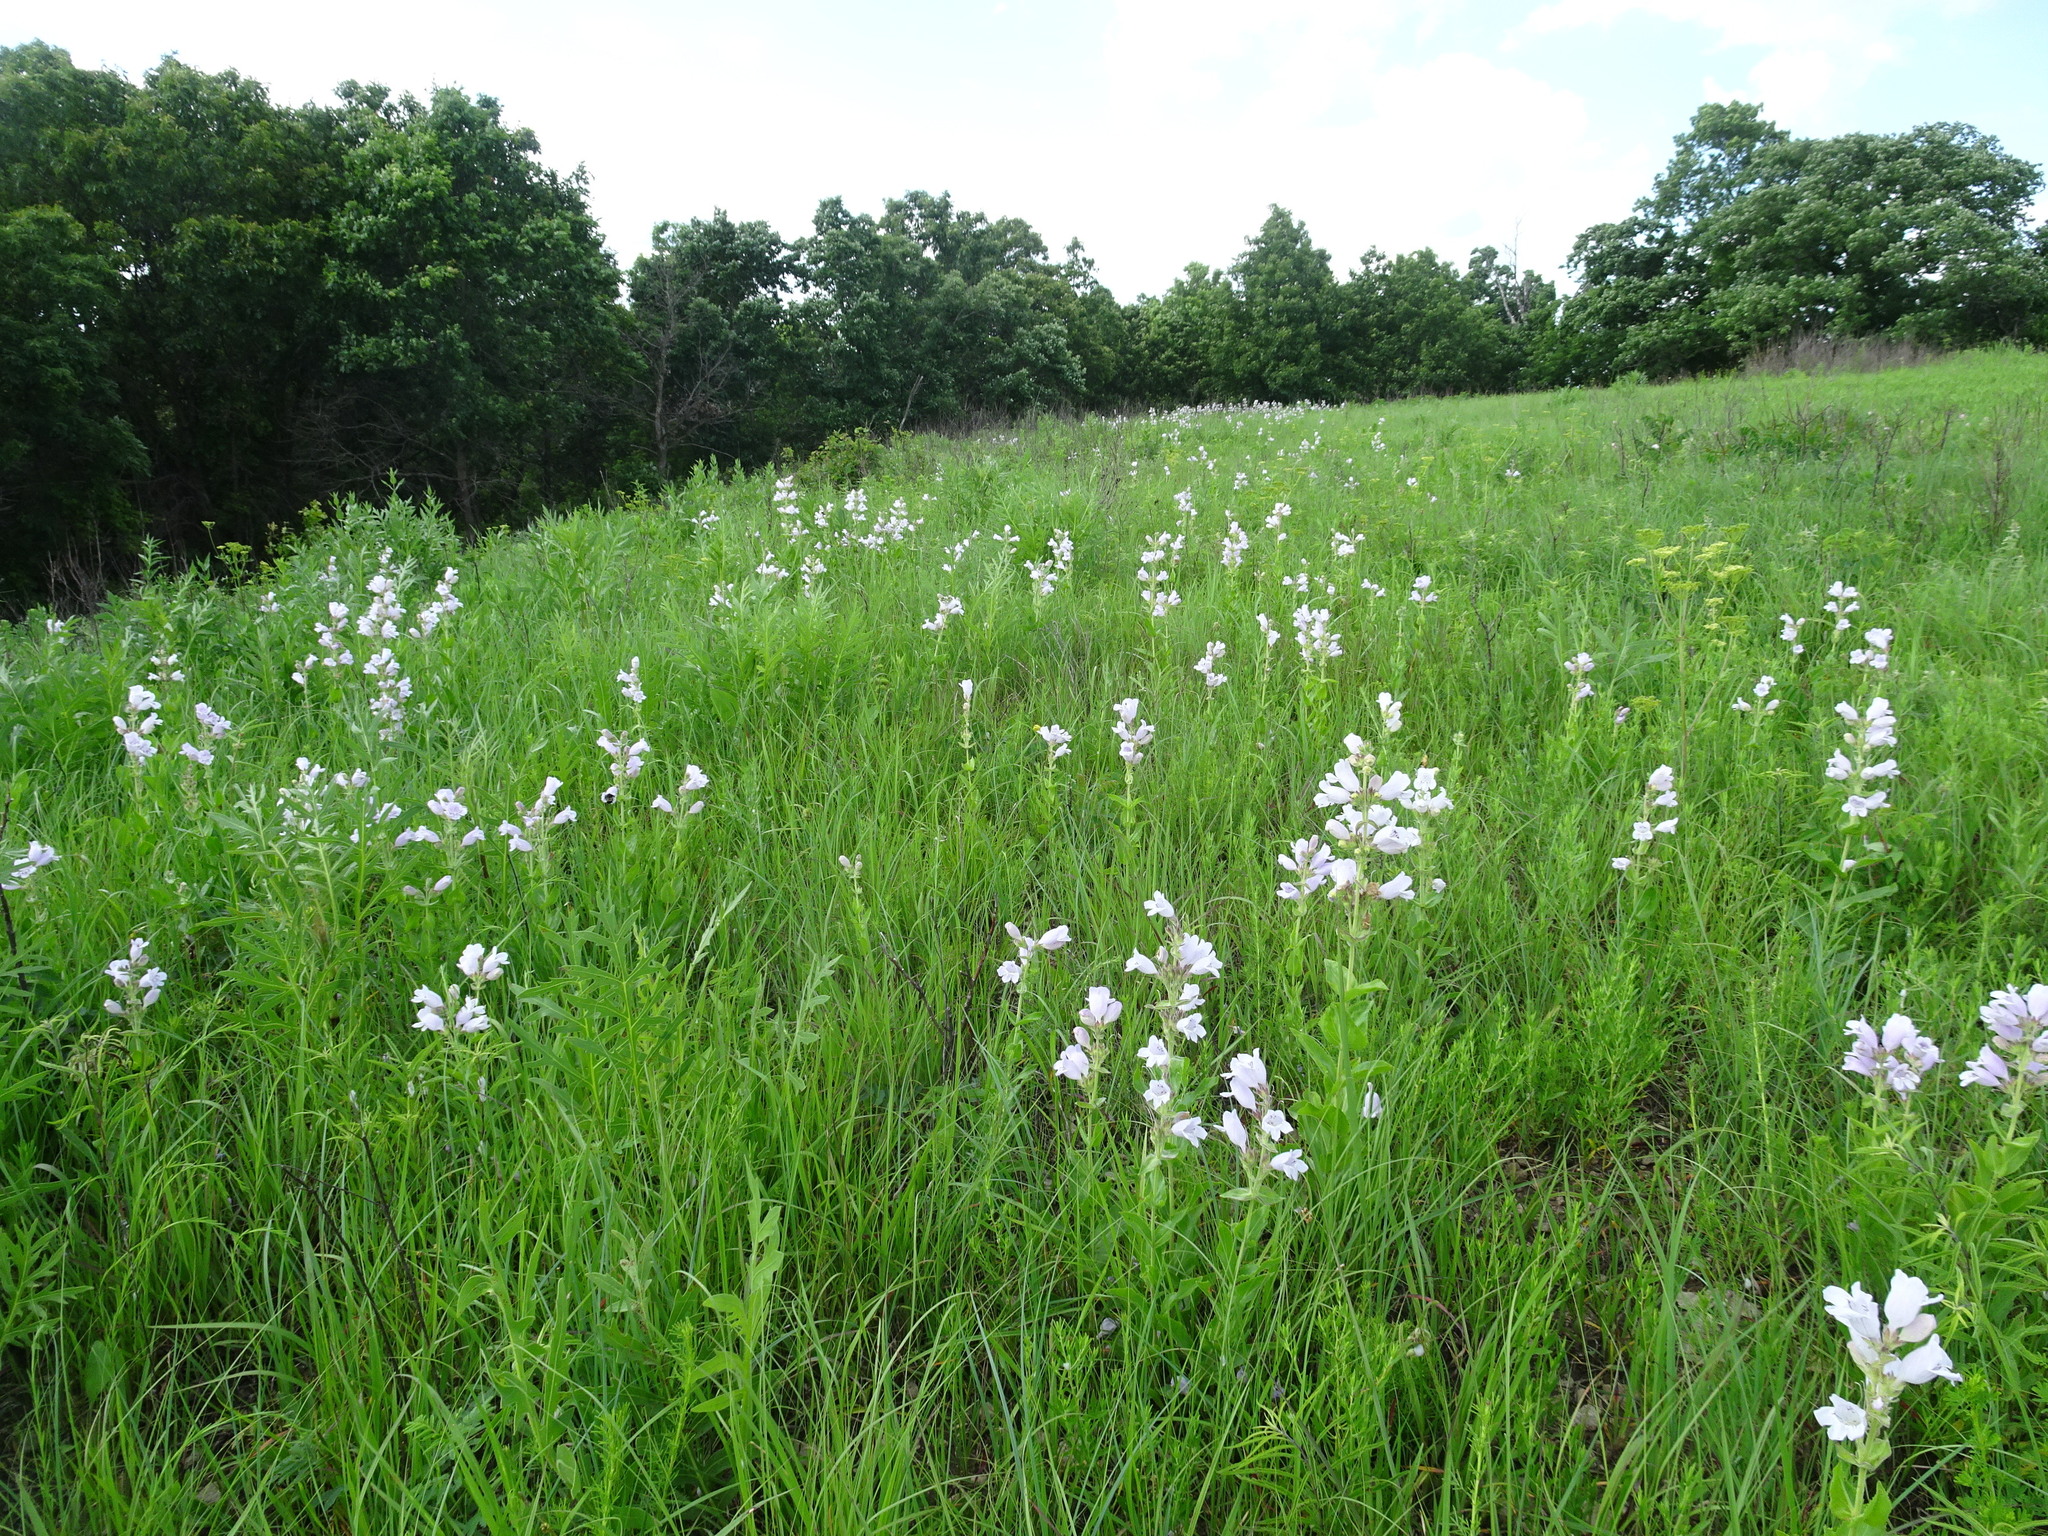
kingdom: Plantae
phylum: Tracheophyta
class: Magnoliopsida
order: Lamiales
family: Plantaginaceae
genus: Penstemon
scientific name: Penstemon cobaea
